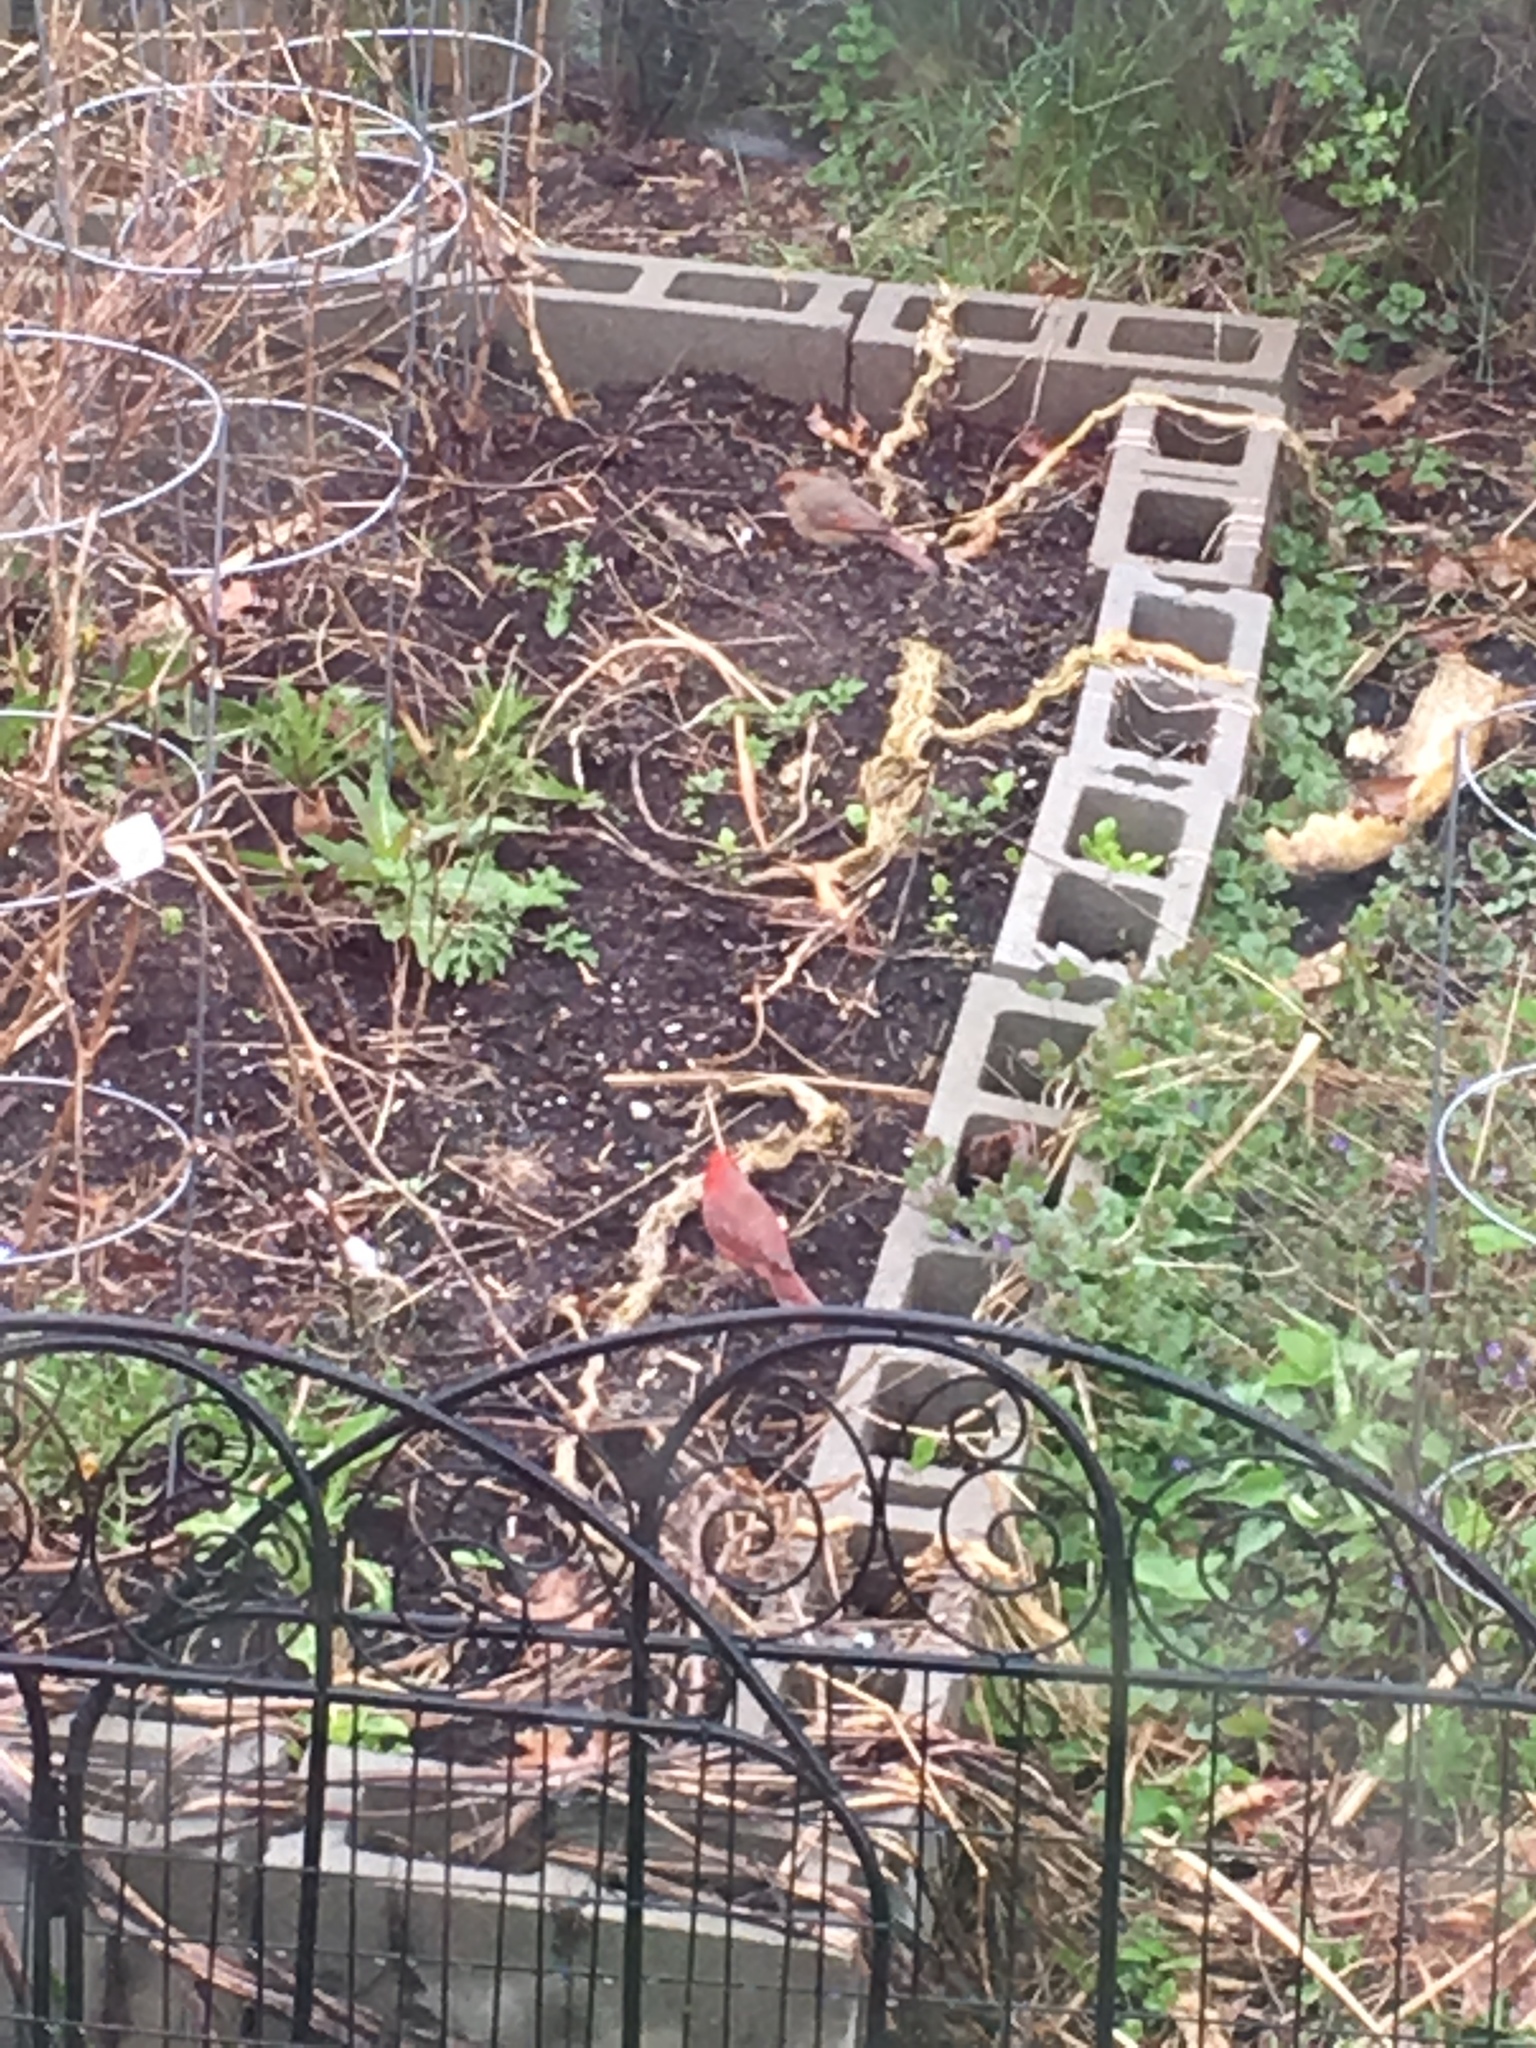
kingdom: Animalia
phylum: Chordata
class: Aves
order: Passeriformes
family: Cardinalidae
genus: Cardinalis
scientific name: Cardinalis cardinalis
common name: Northern cardinal
